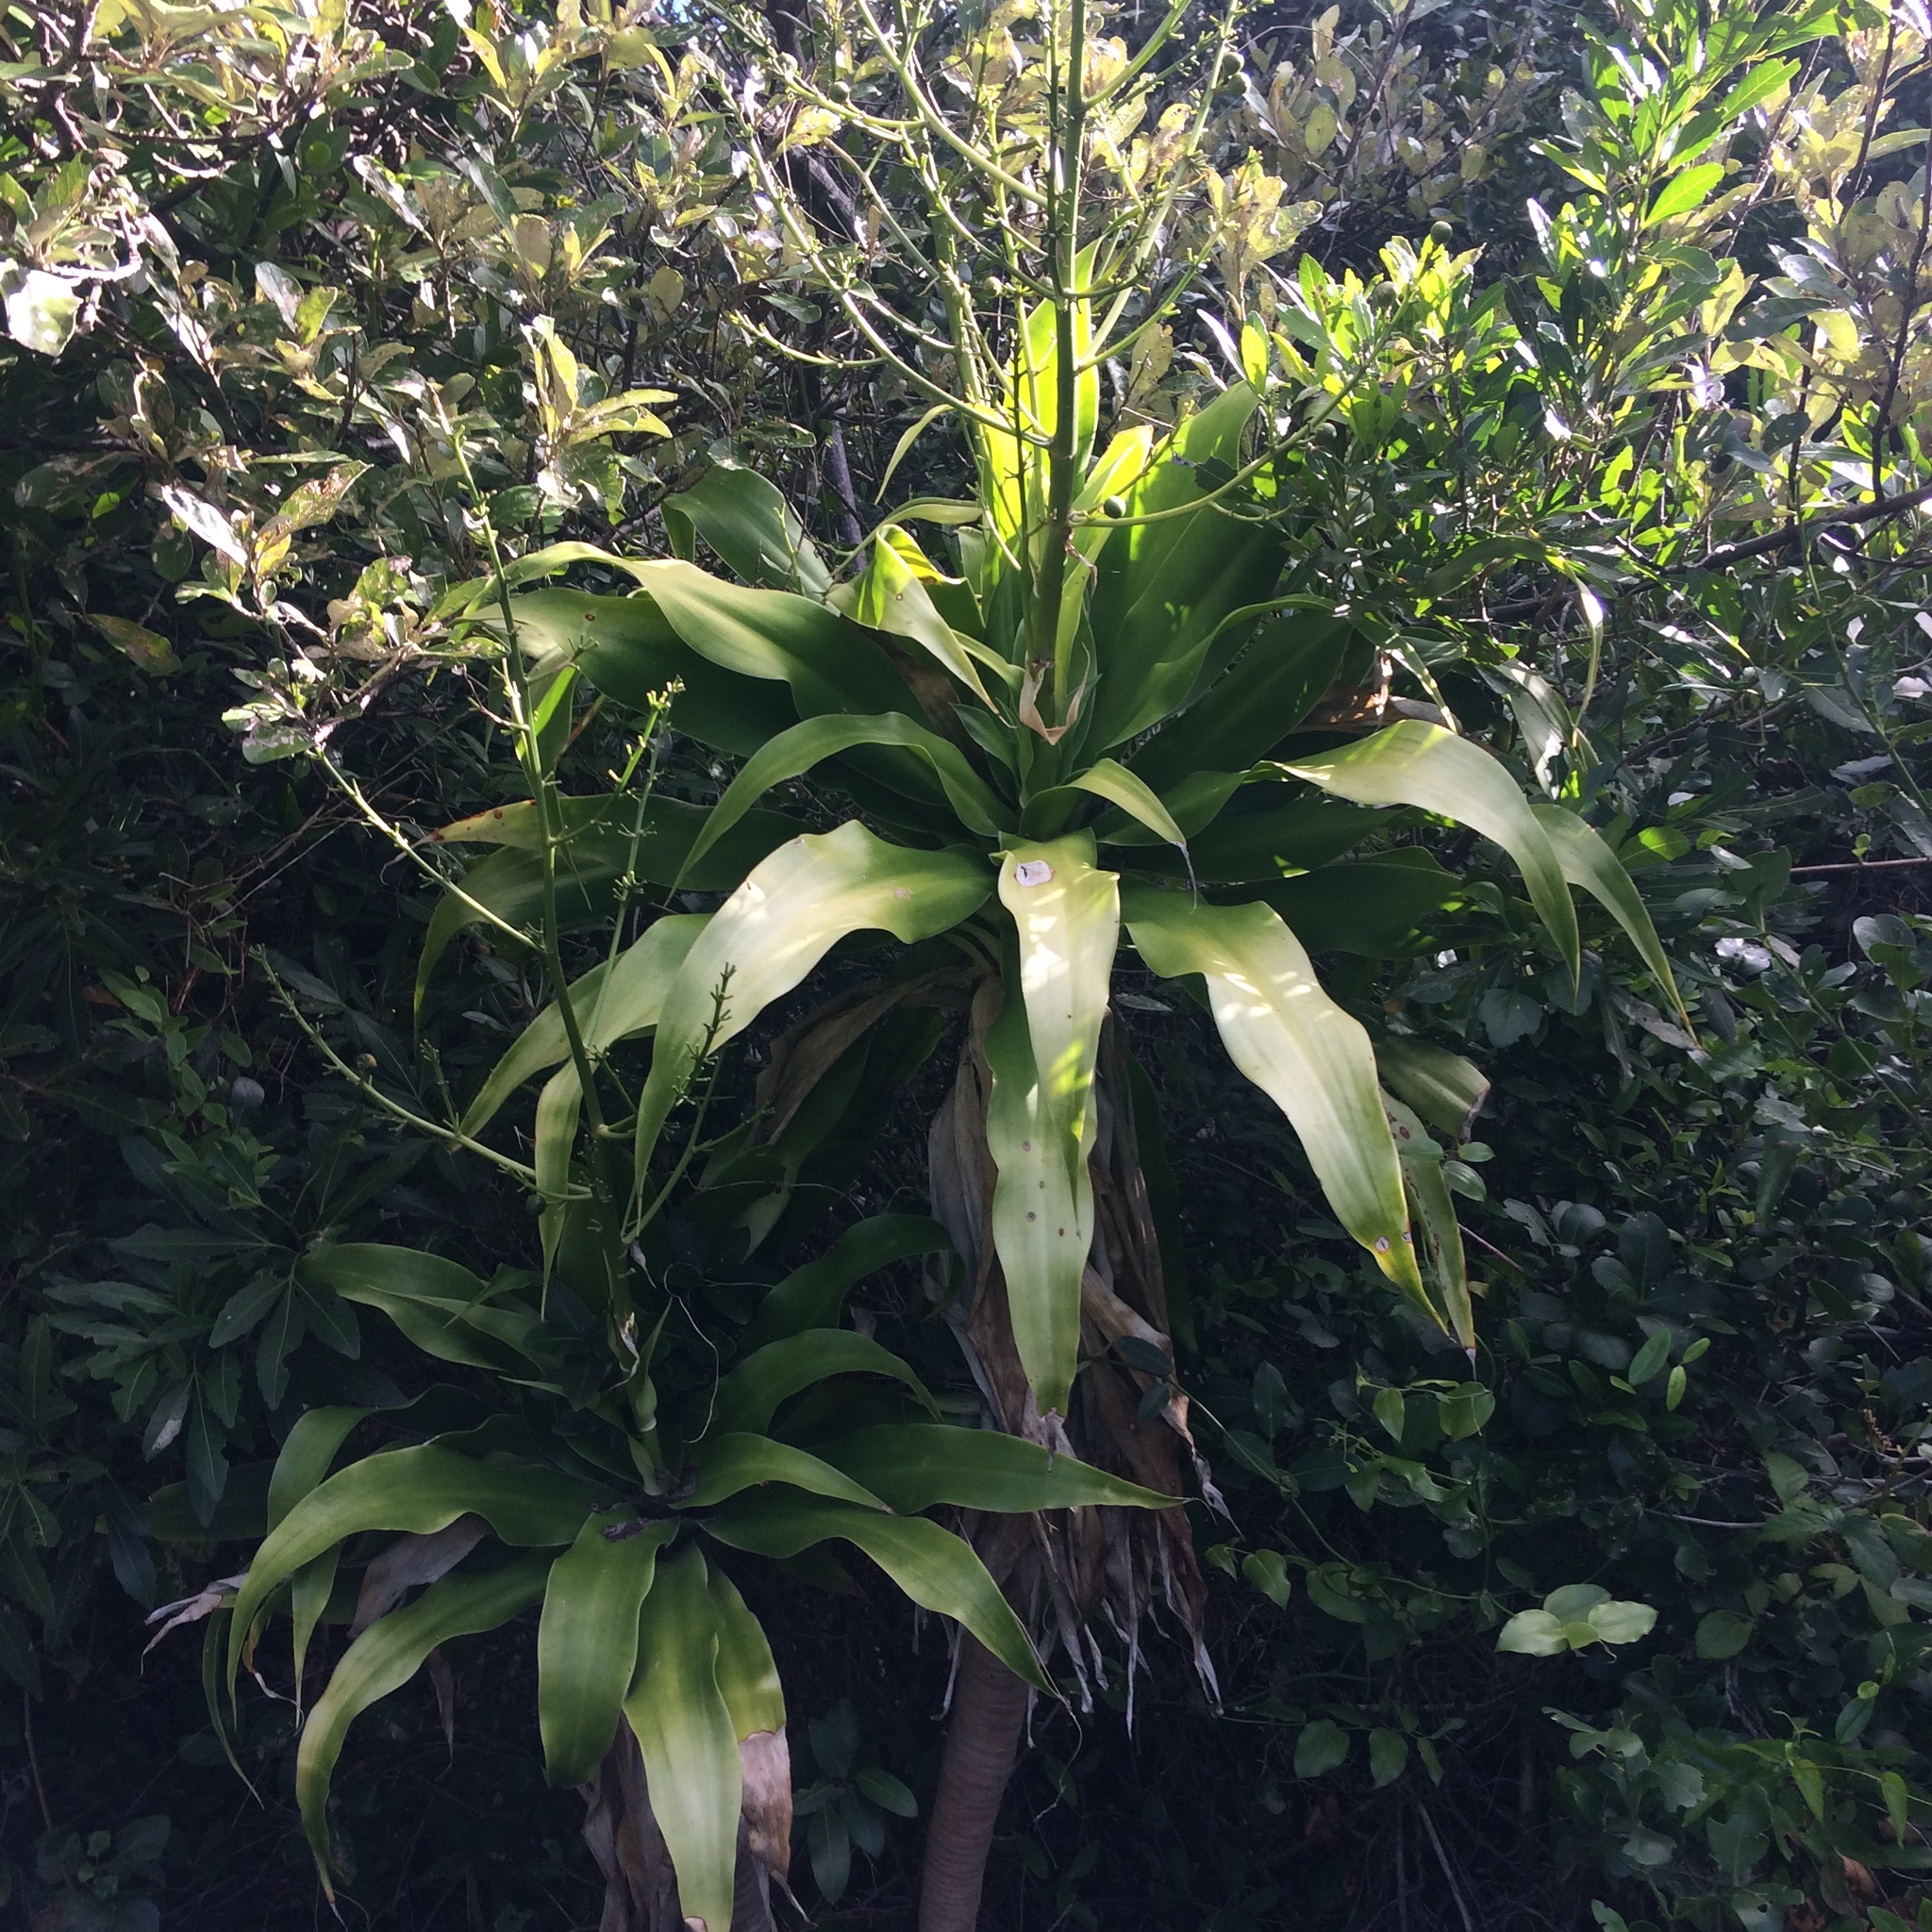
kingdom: Plantae
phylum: Tracheophyta
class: Liliopsida
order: Asparagales
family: Asparagaceae
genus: Dracaena
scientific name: Dracaena aletriformis
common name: Large-leaved dragon tree
